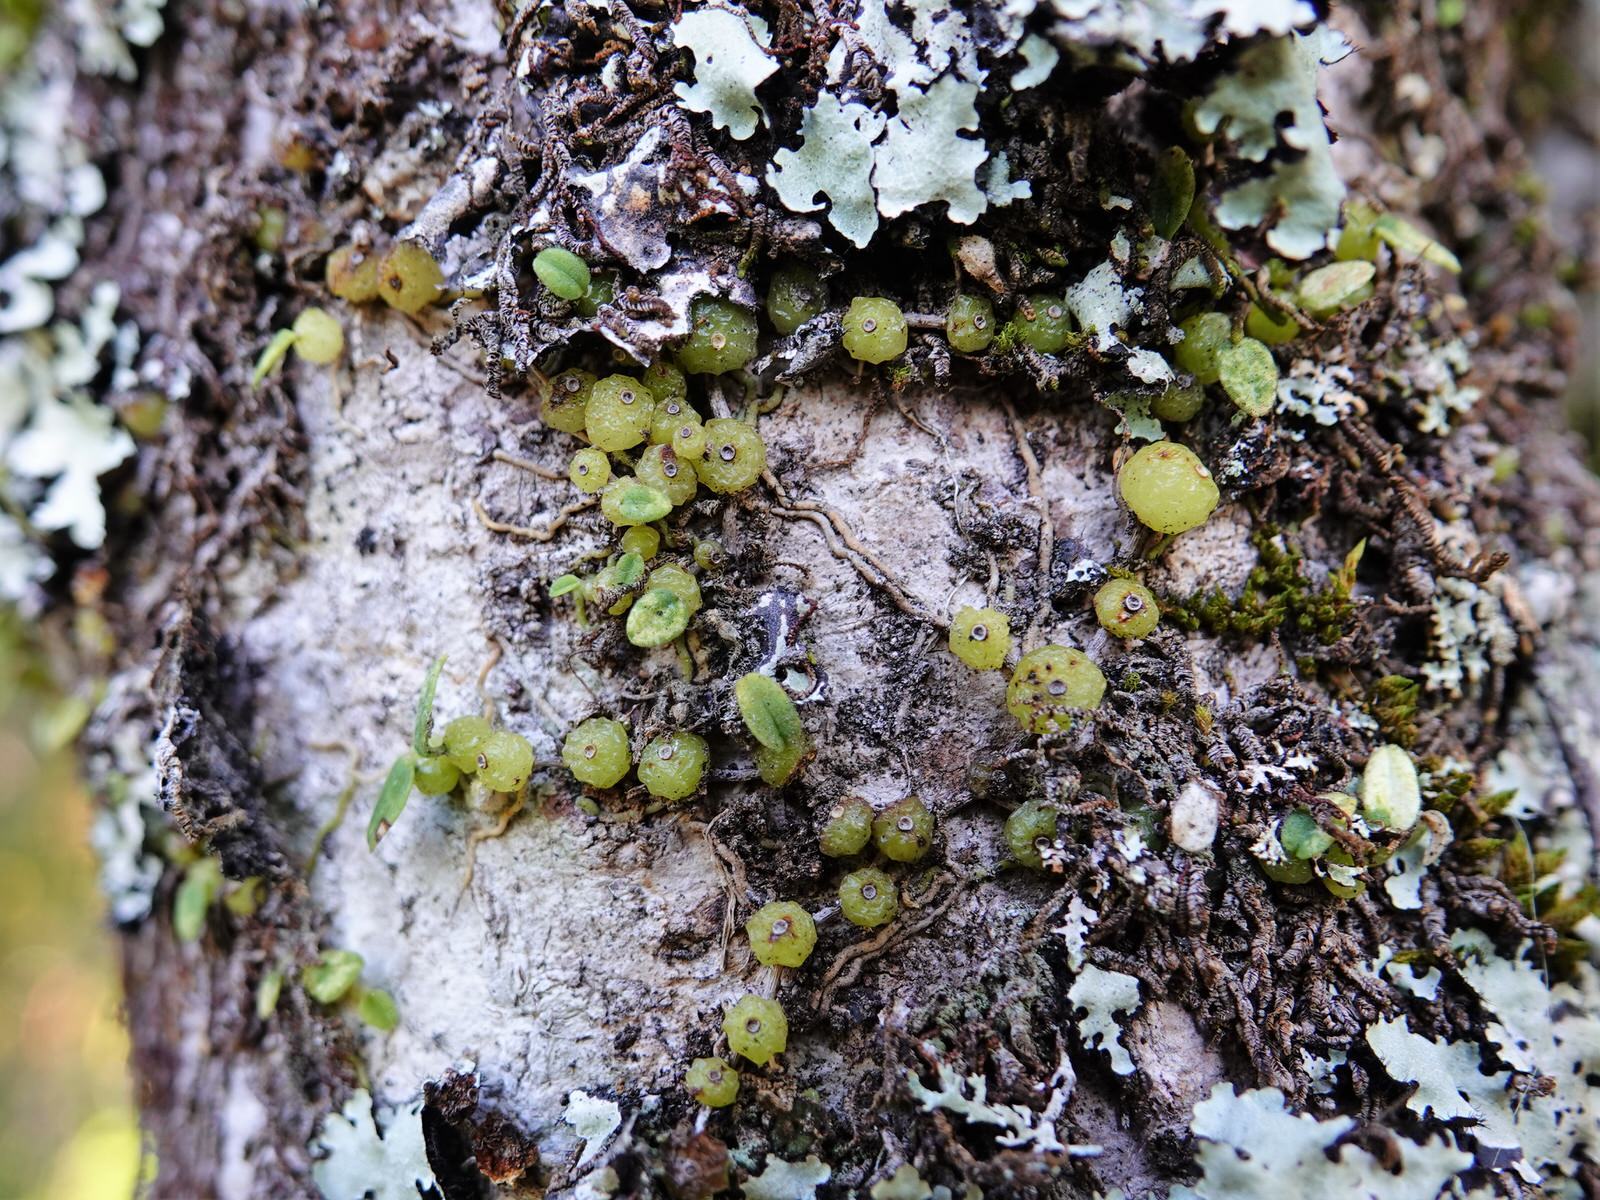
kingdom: Plantae
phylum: Tracheophyta
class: Liliopsida
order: Asparagales
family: Orchidaceae
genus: Bulbophyllum
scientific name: Bulbophyllum pygmaeum
